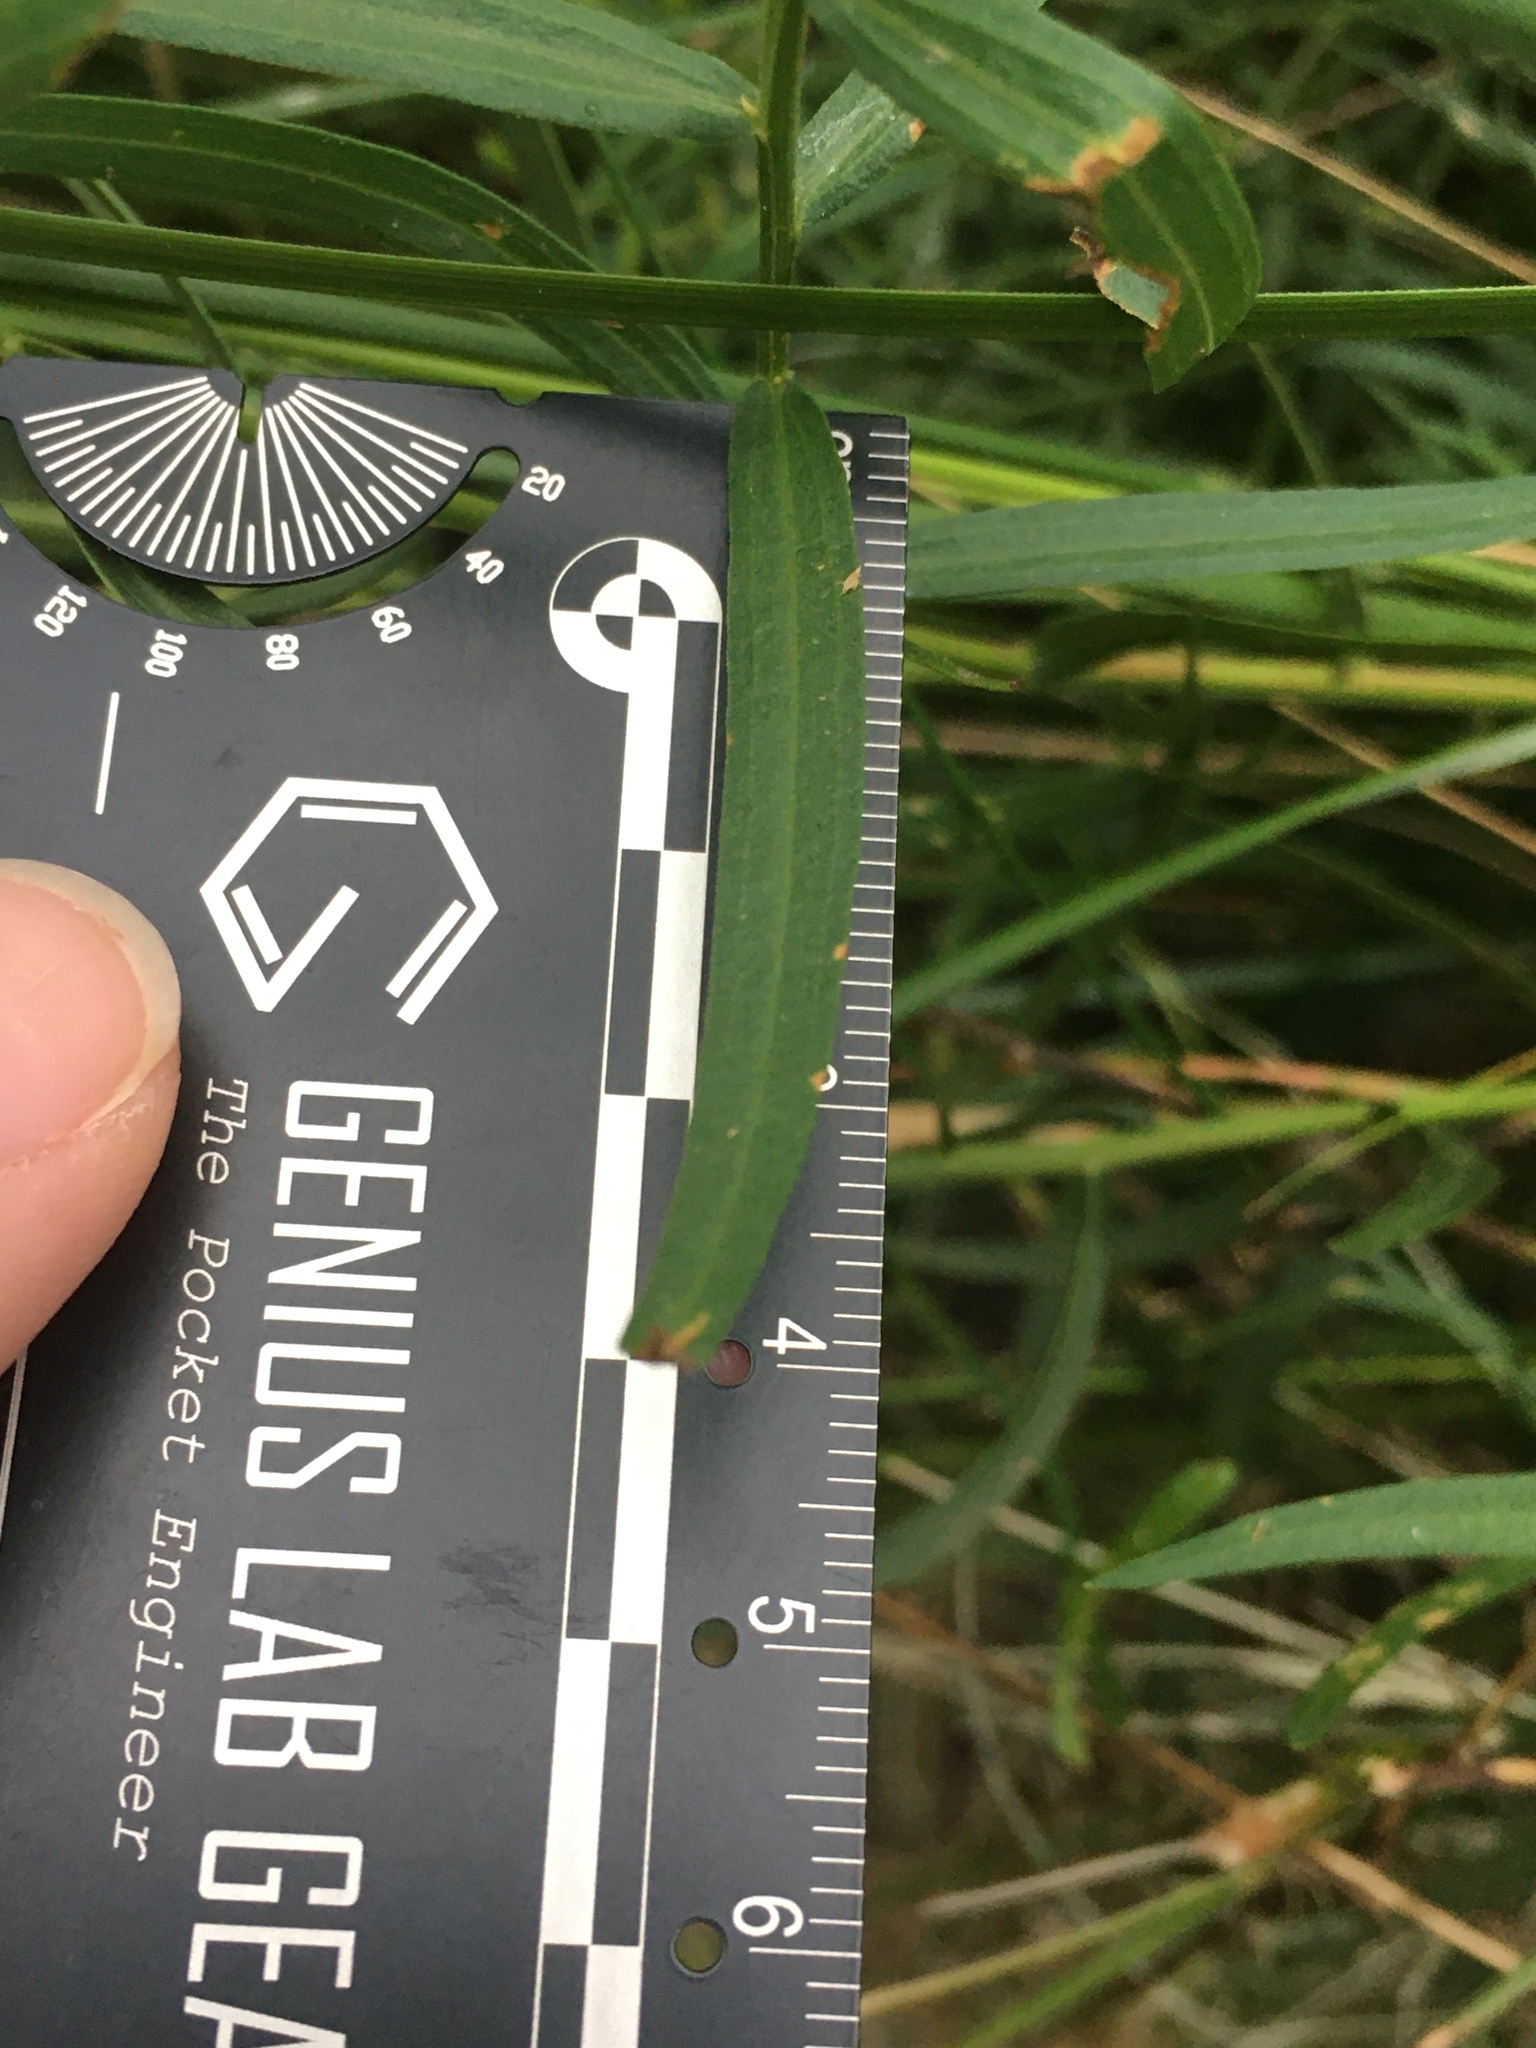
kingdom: Plantae
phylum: Tracheophyta
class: Magnoliopsida
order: Asterales
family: Asteraceae
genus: Euthamia
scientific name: Euthamia weakleyi
